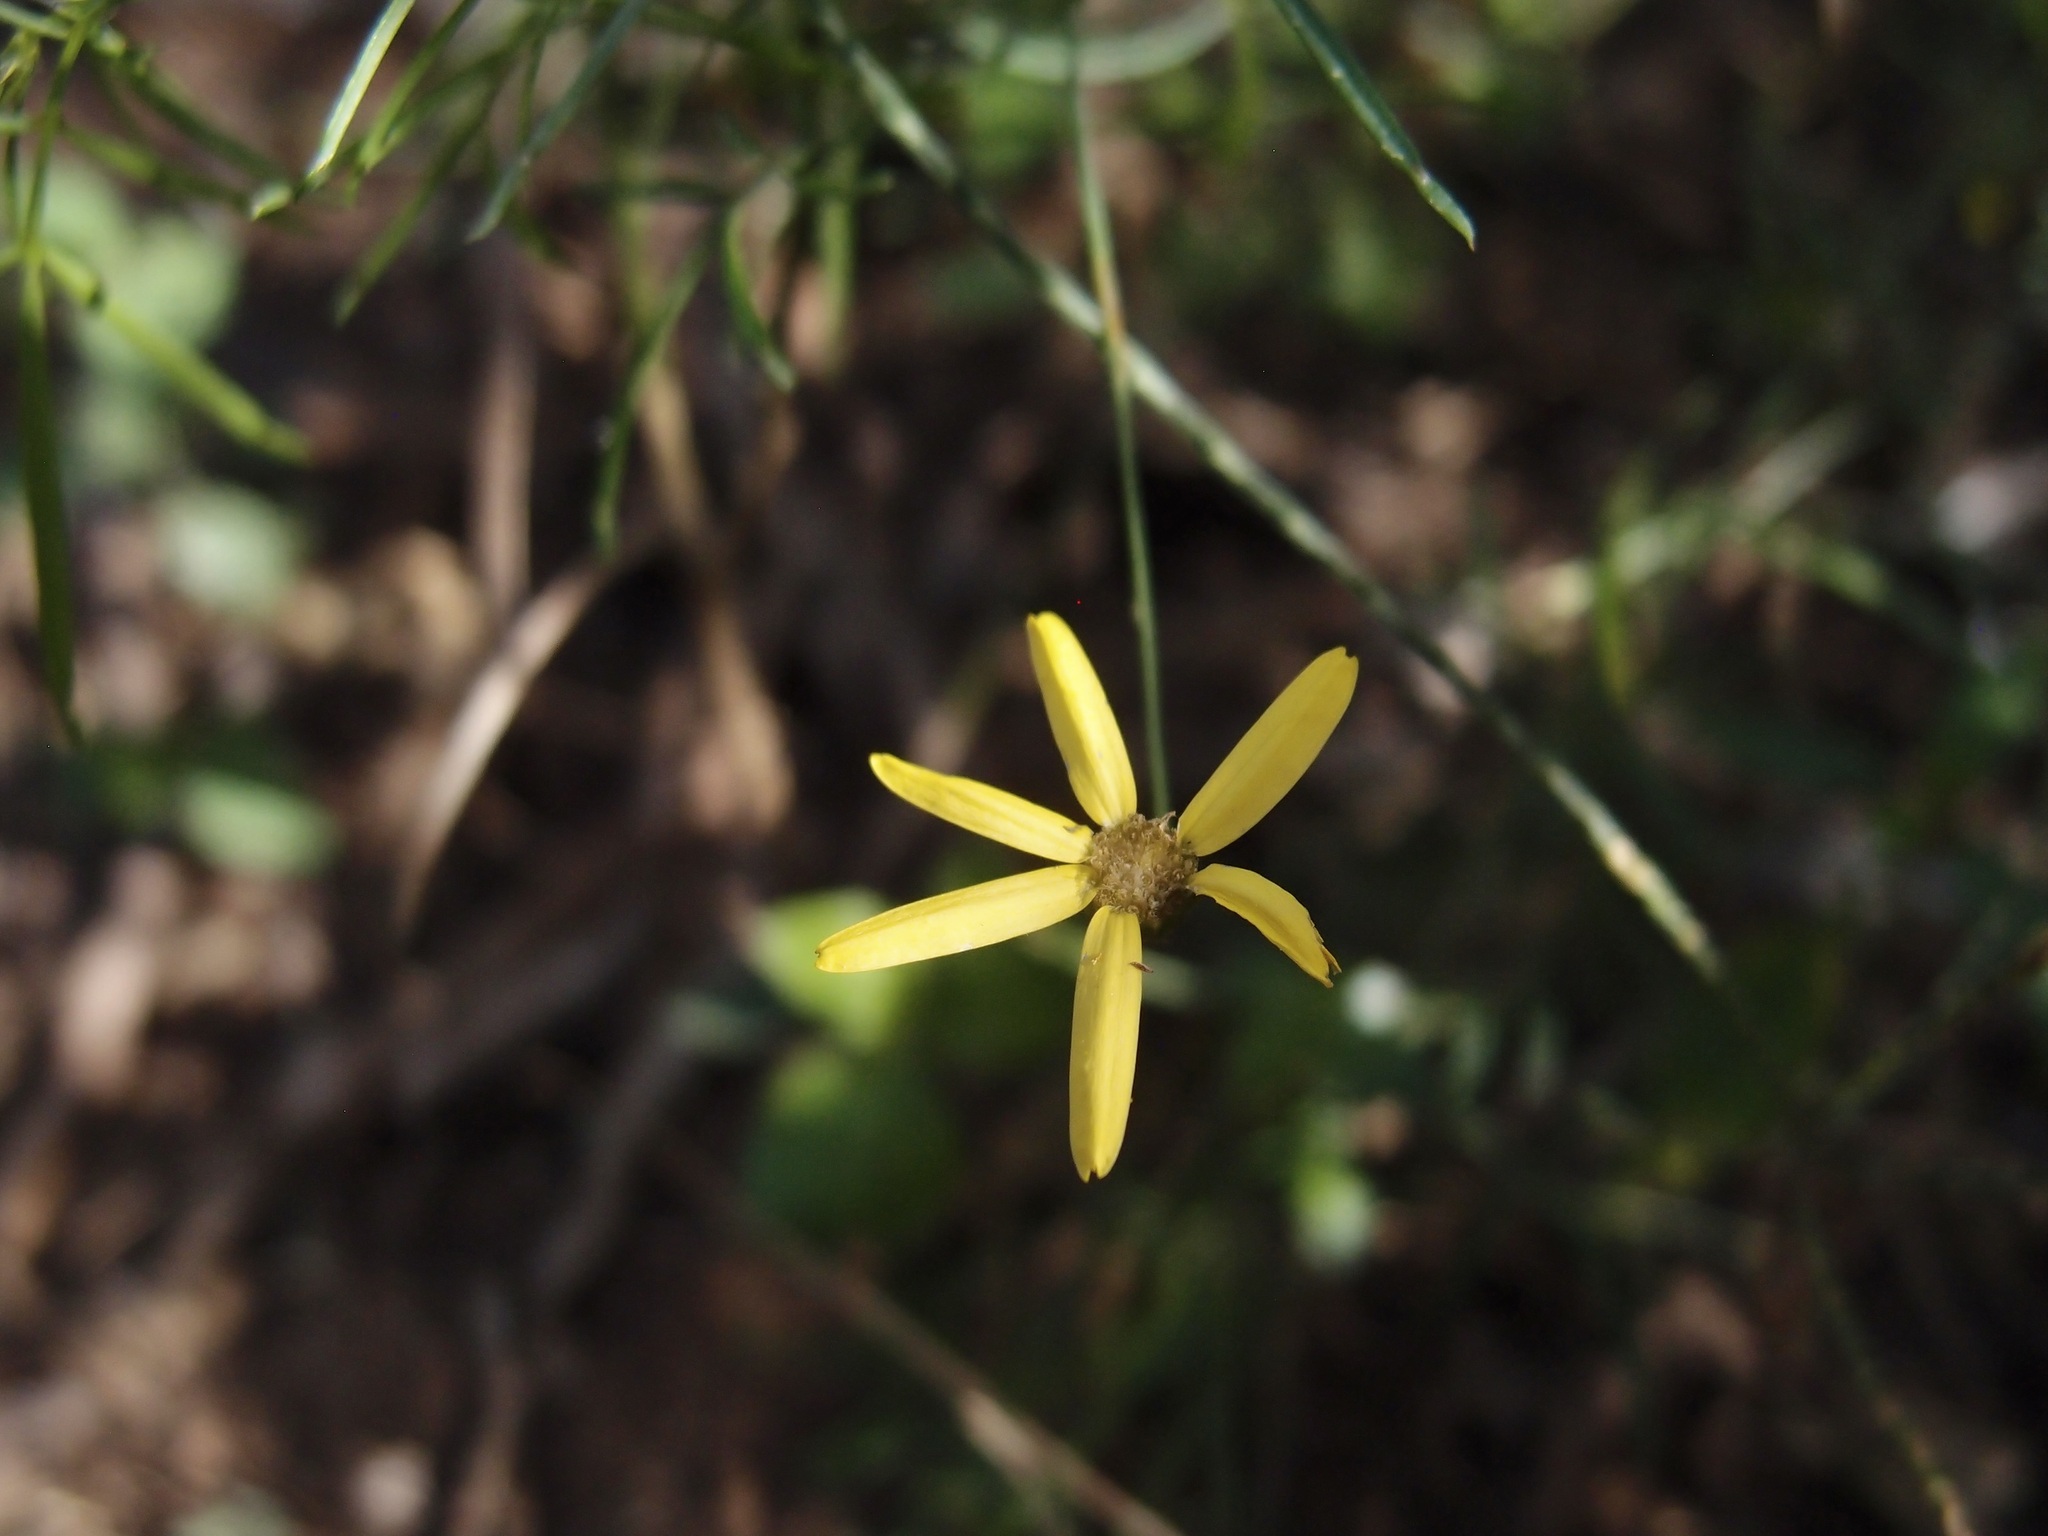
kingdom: Plantae
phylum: Tracheophyta
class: Magnoliopsida
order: Asterales
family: Asteraceae
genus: Adenophyllum
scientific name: Adenophyllum anomalum
